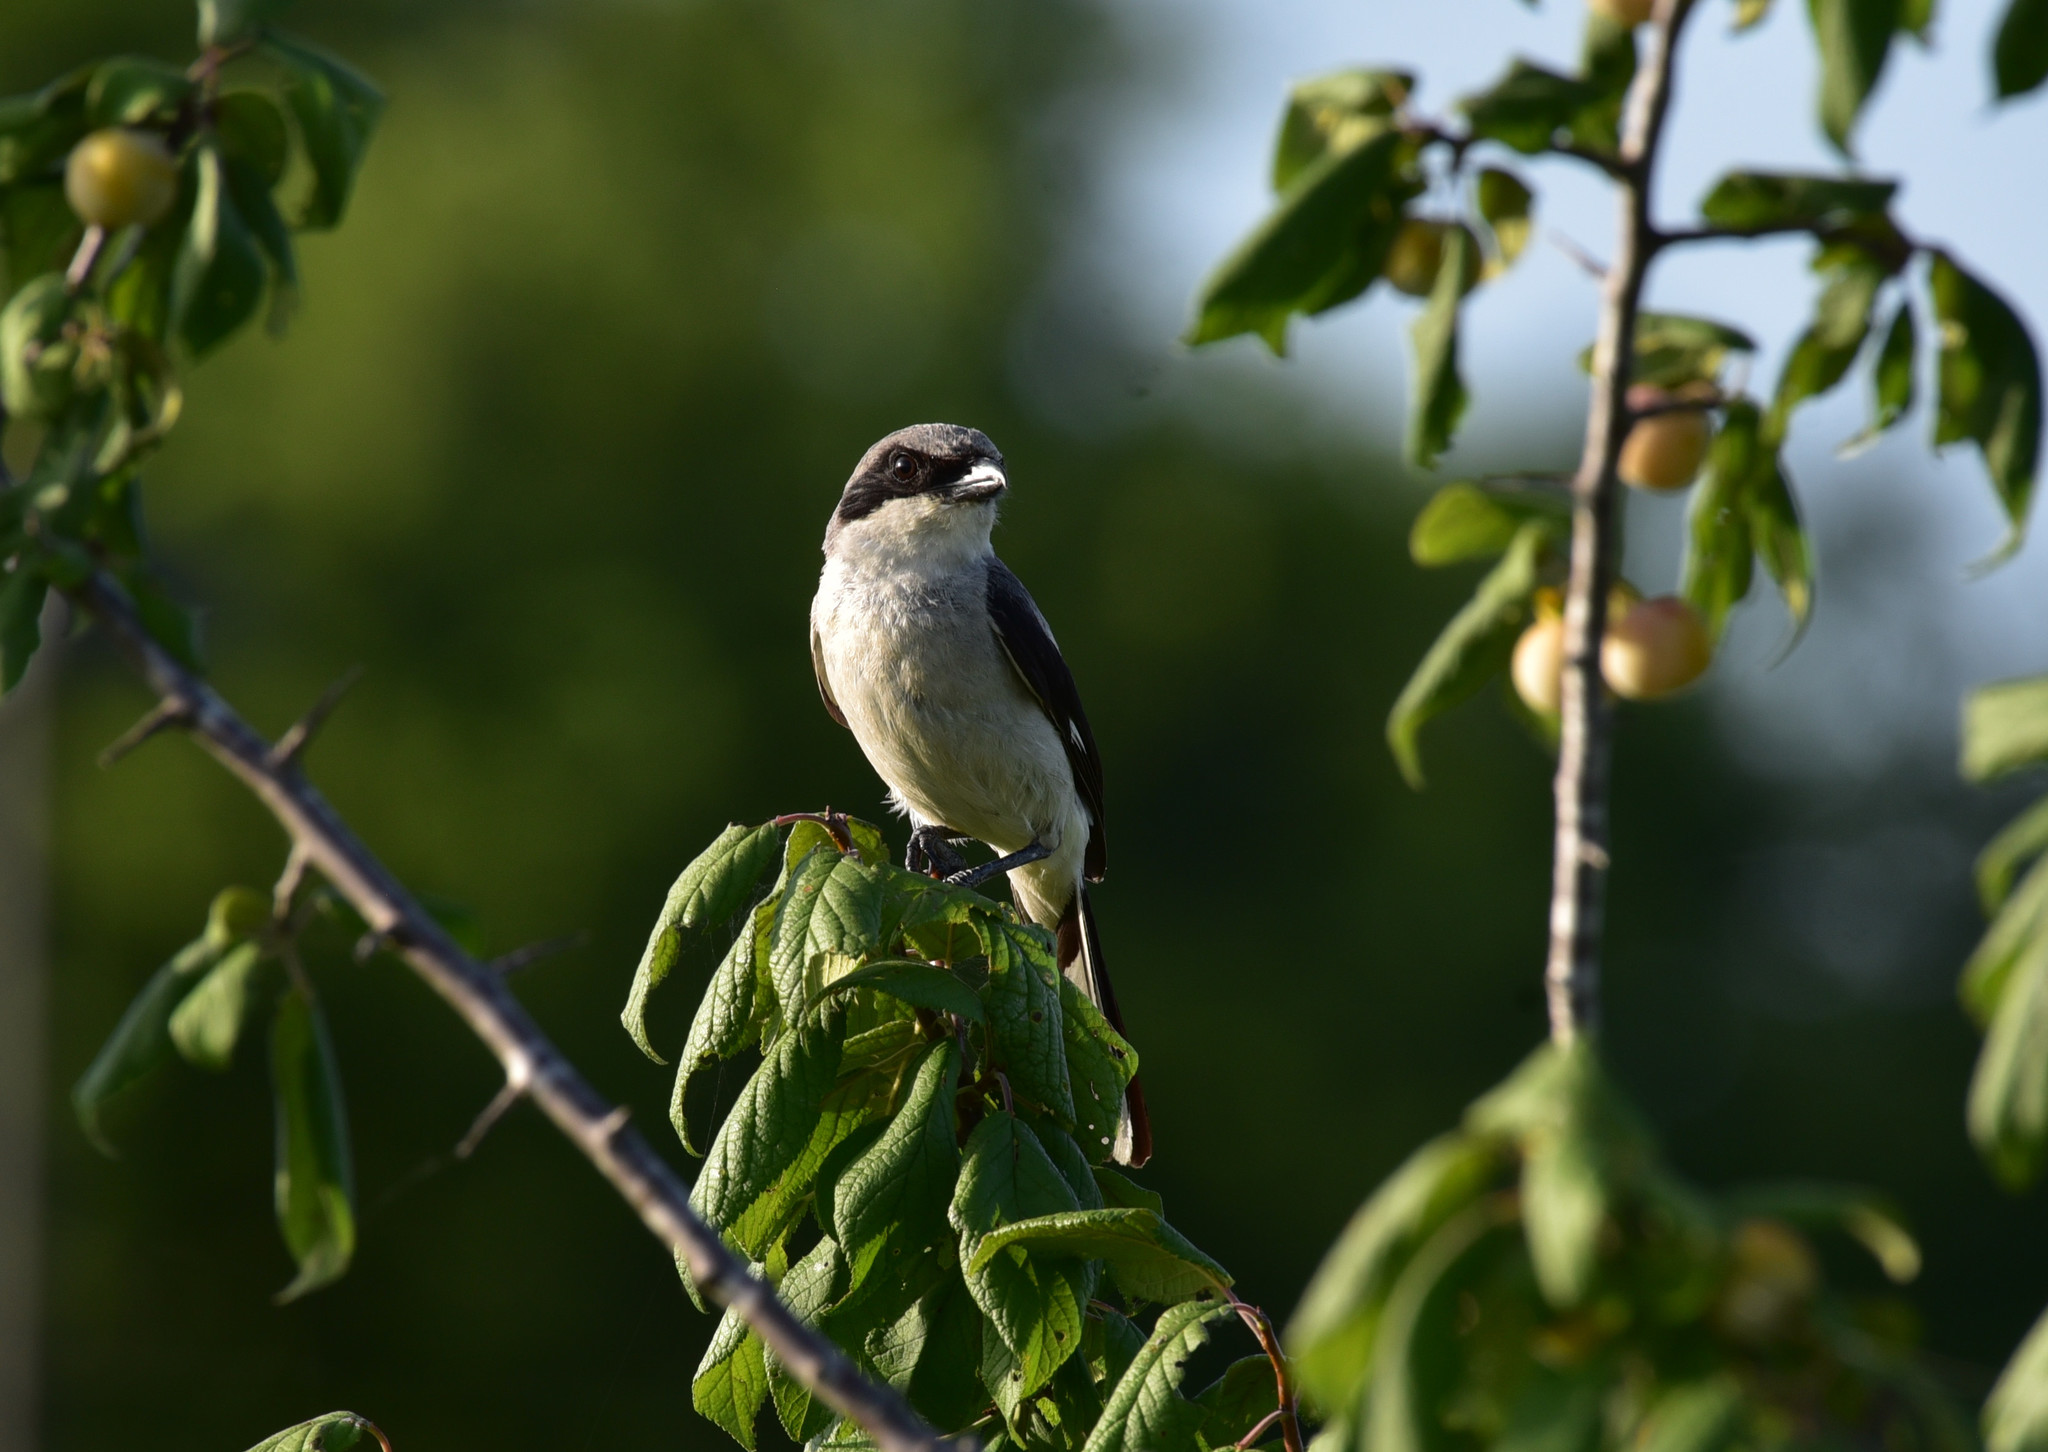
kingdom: Animalia
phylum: Chordata
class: Aves
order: Passeriformes
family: Laniidae
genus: Lanius
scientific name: Lanius ludovicianus
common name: Loggerhead shrike
